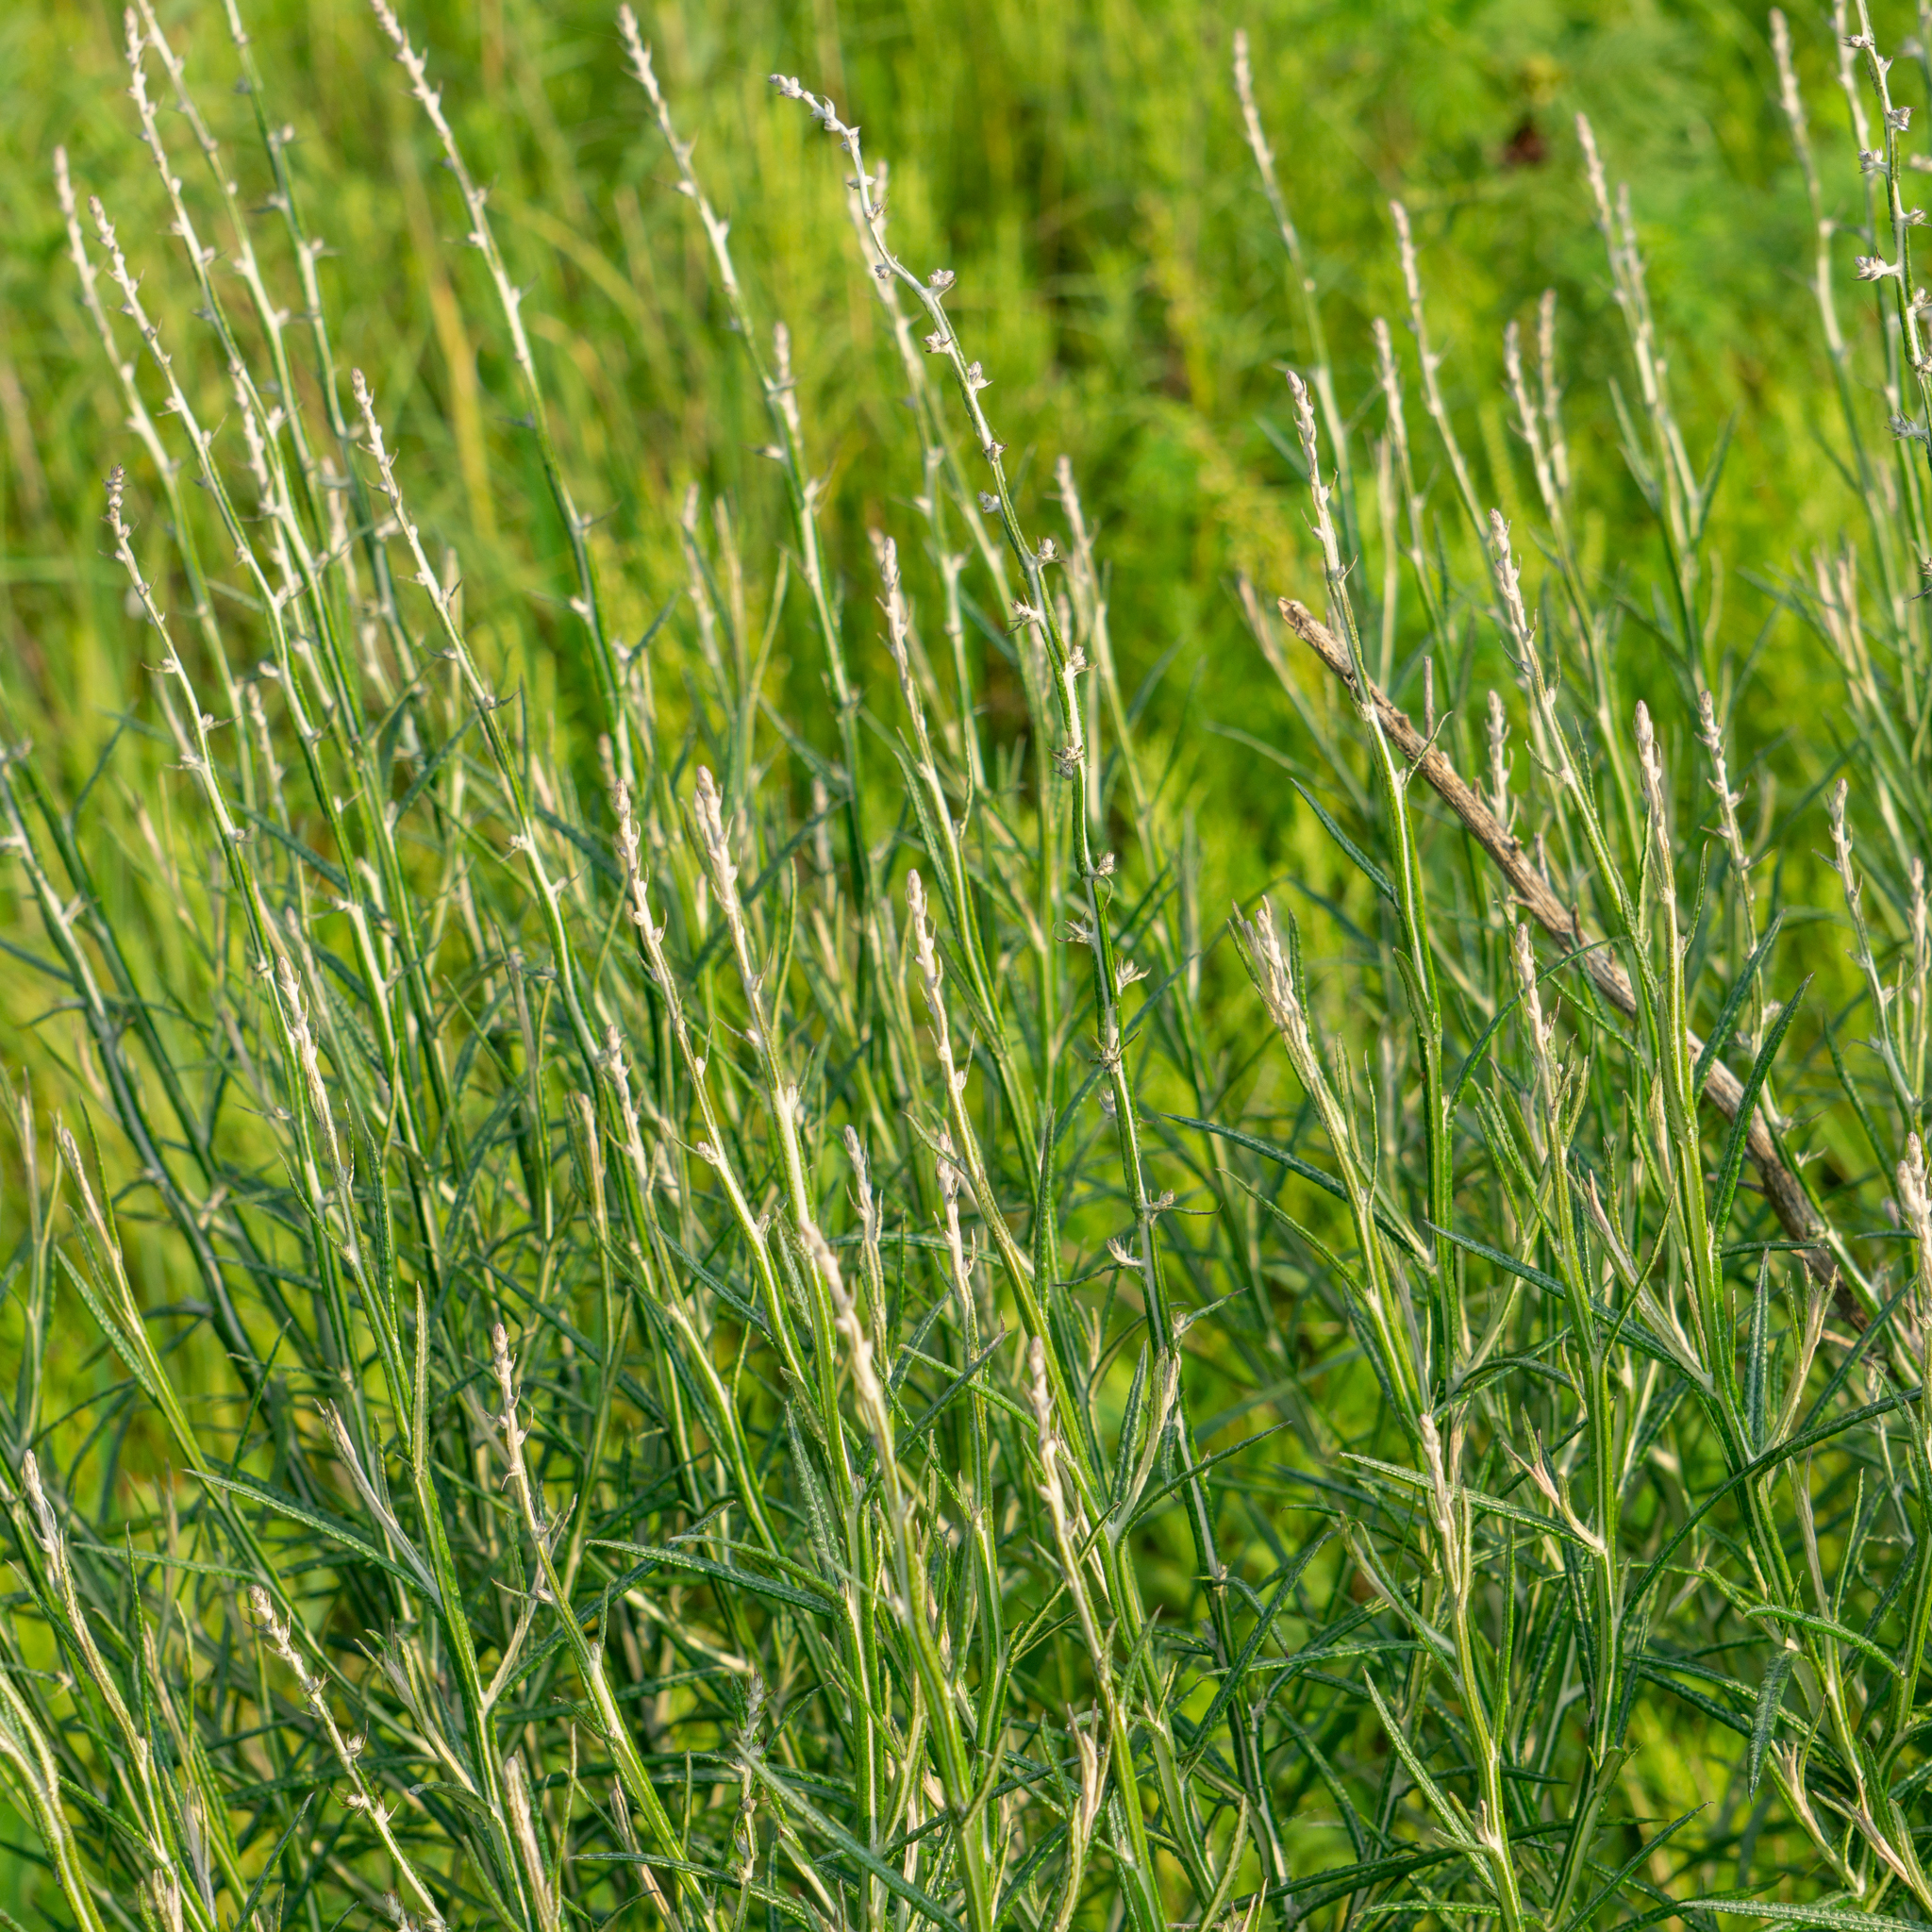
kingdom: Plantae
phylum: Tracheophyta
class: Magnoliopsida
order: Asterales
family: Asteraceae
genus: Pterocaulon
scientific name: Pterocaulon virgatum
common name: Wand blackroot
